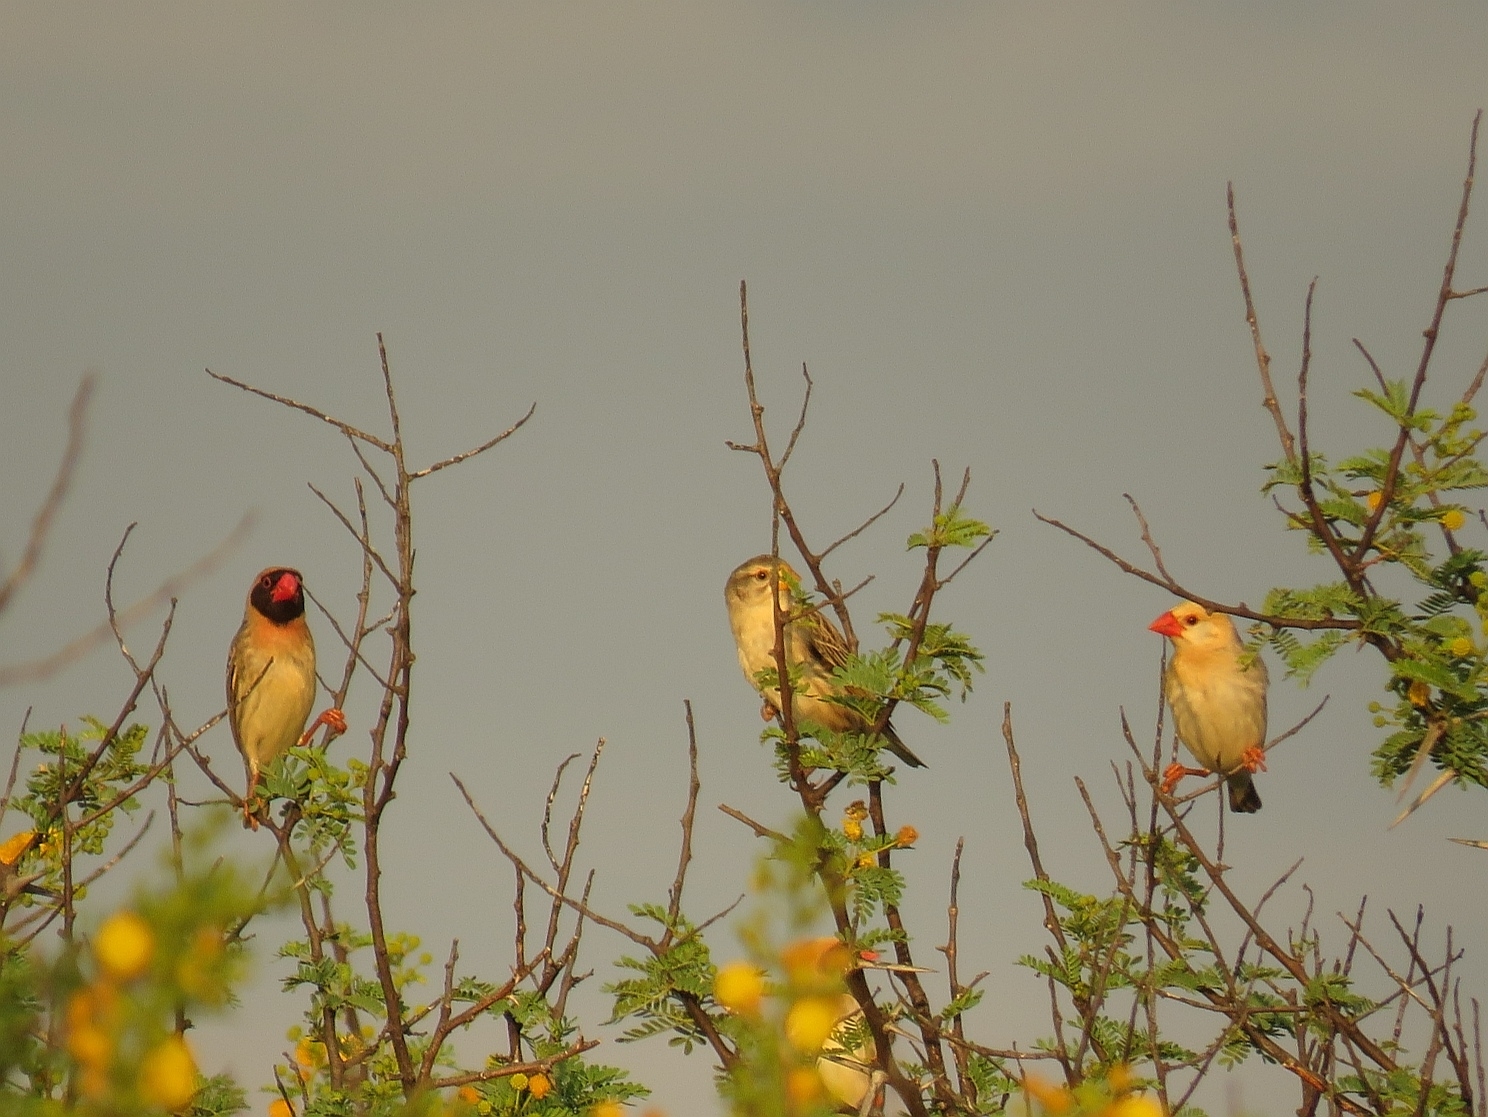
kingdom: Animalia
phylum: Chordata
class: Aves
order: Passeriformes
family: Ploceidae
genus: Quelea
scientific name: Quelea quelea
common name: Red-billed quelea
